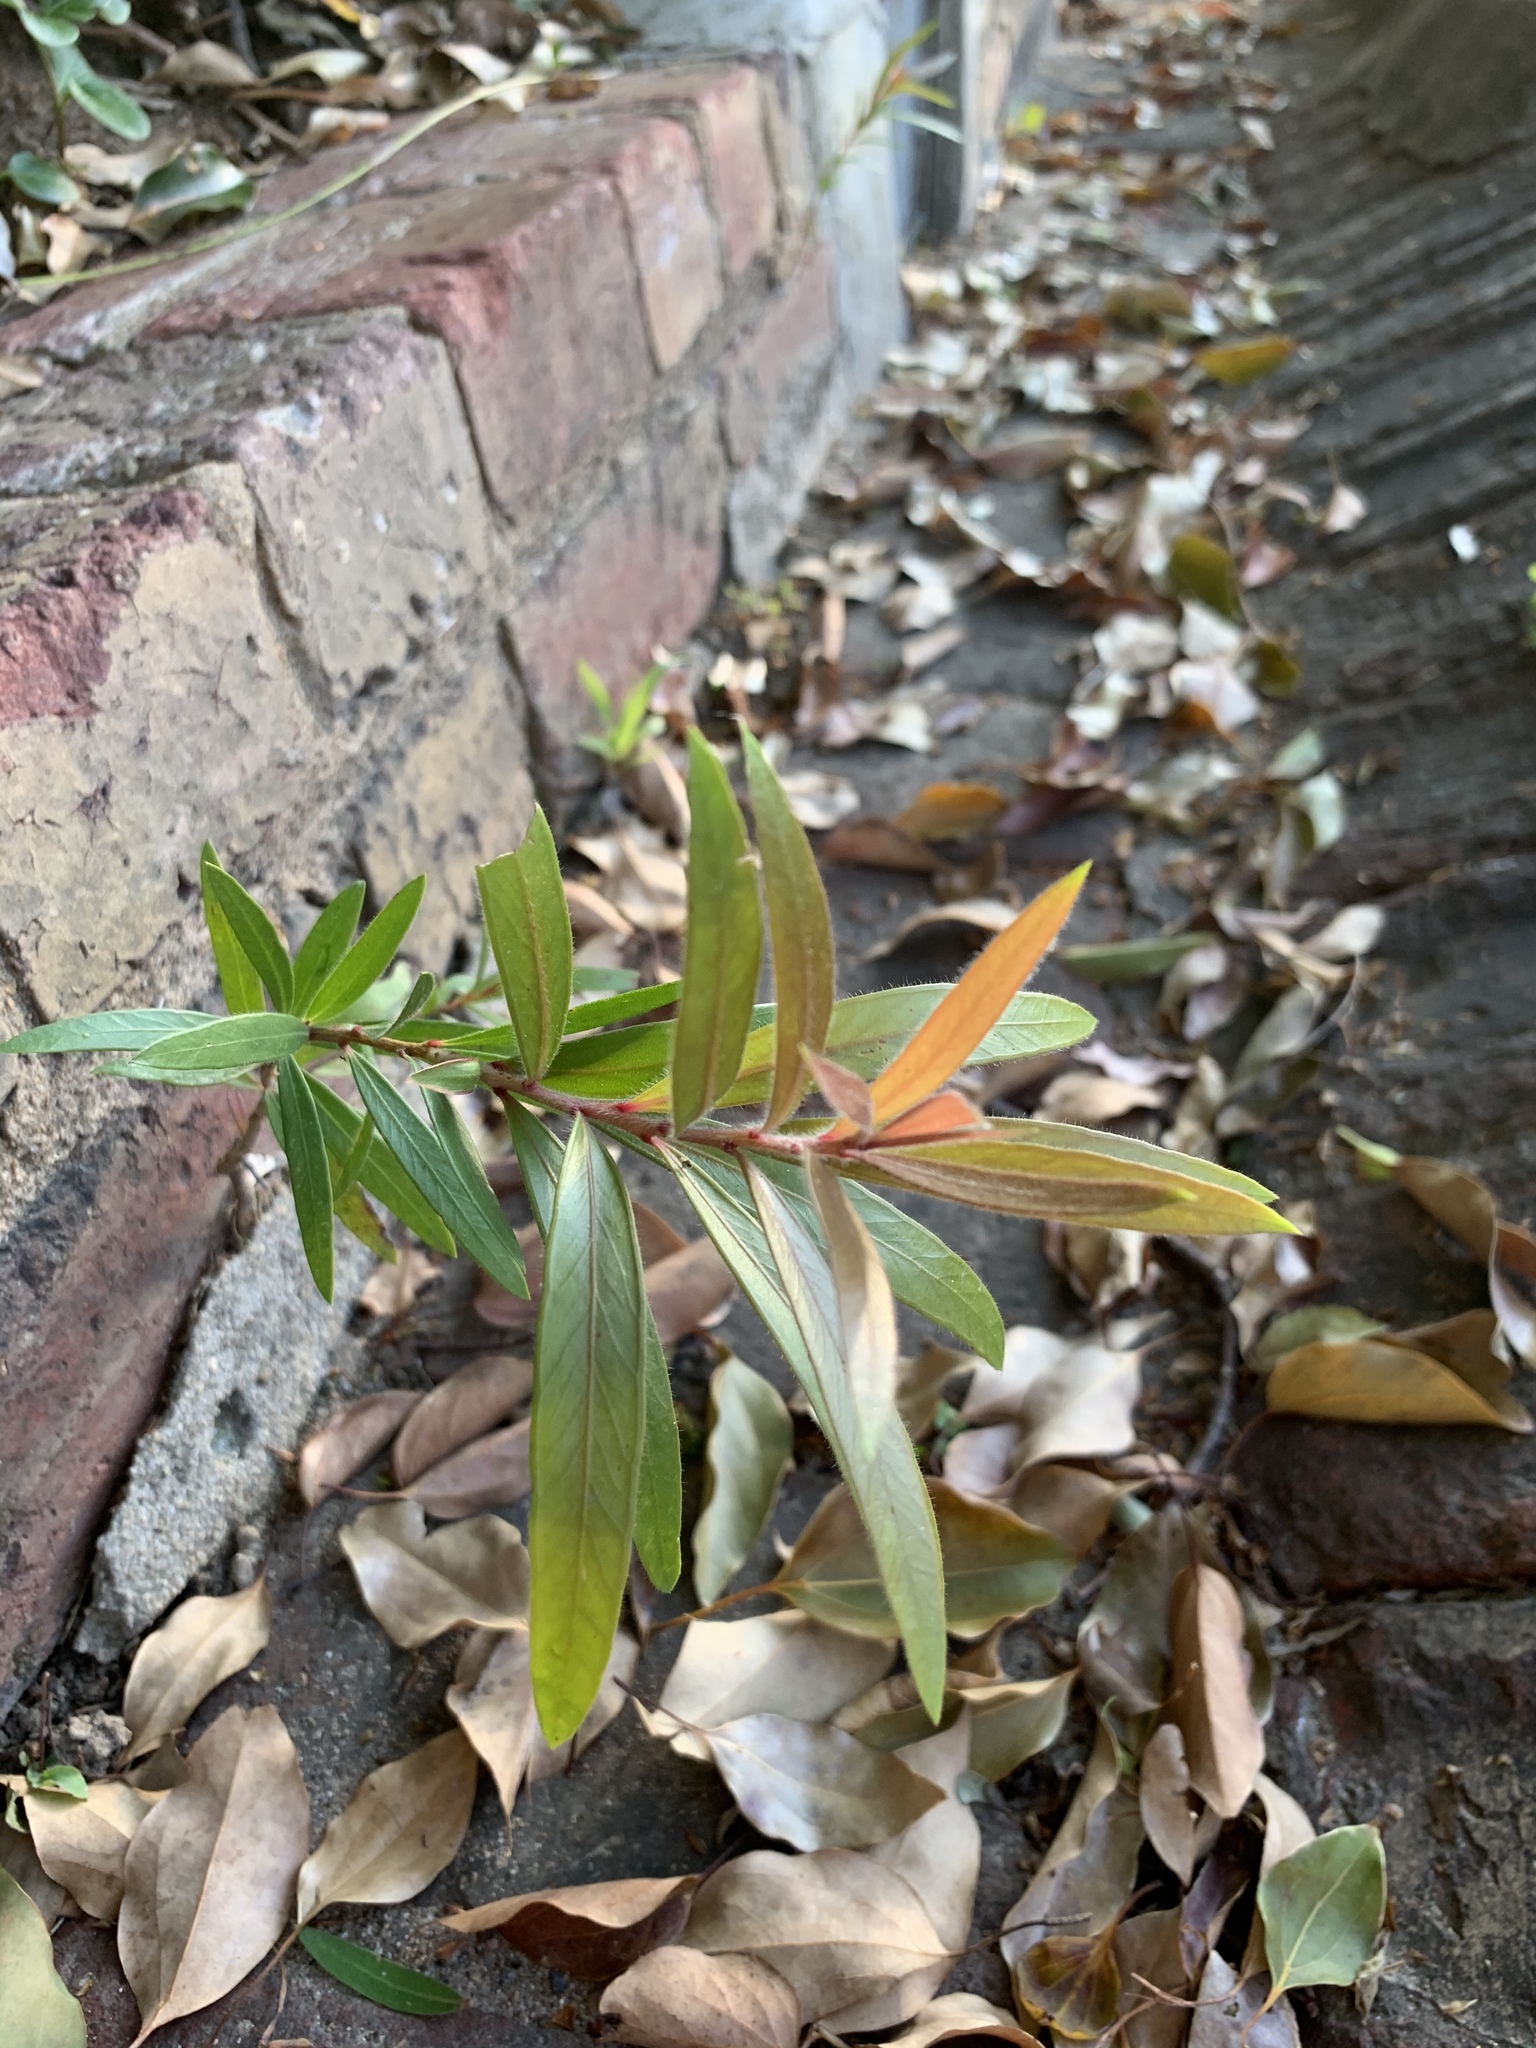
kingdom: Plantae
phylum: Tracheophyta
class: Magnoliopsida
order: Myrtales
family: Myrtaceae
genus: Callistemon
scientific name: Callistemon viminalis
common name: Drooping bottlebrush
